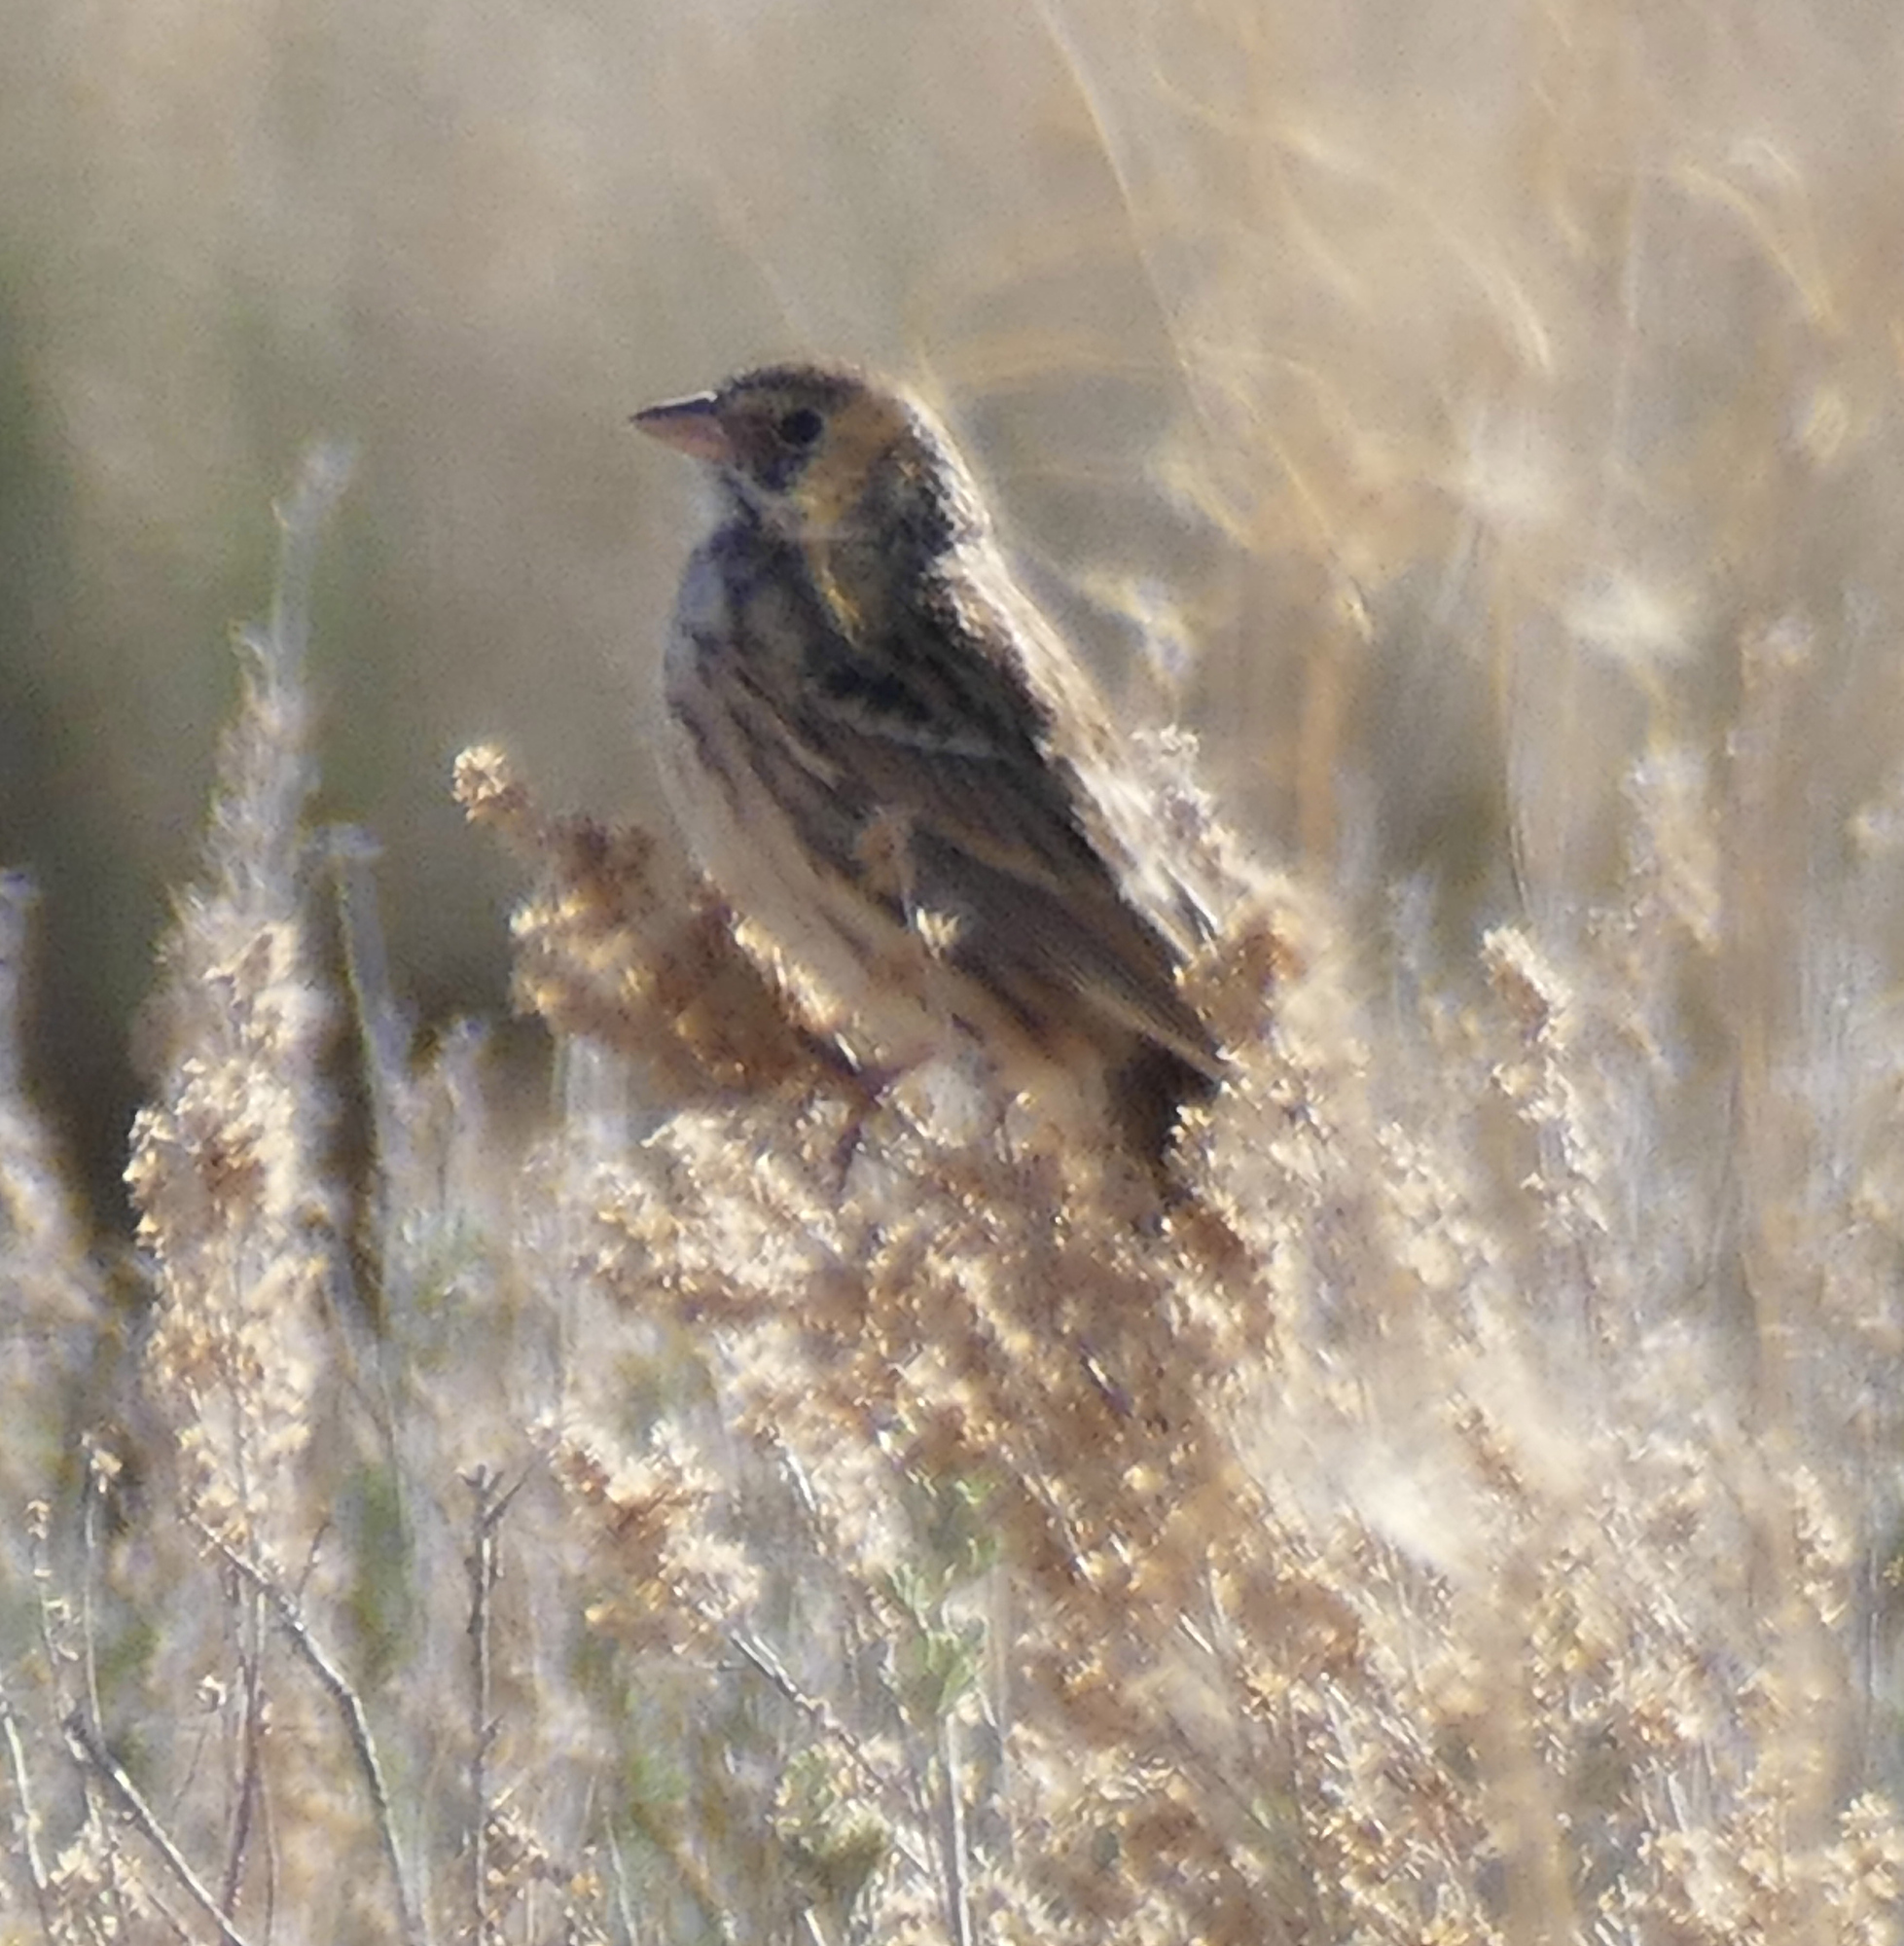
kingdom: Animalia
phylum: Chordata
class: Aves
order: Passeriformes
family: Passerellidae
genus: Pooecetes
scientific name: Pooecetes gramineus
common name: Vesper sparrow
